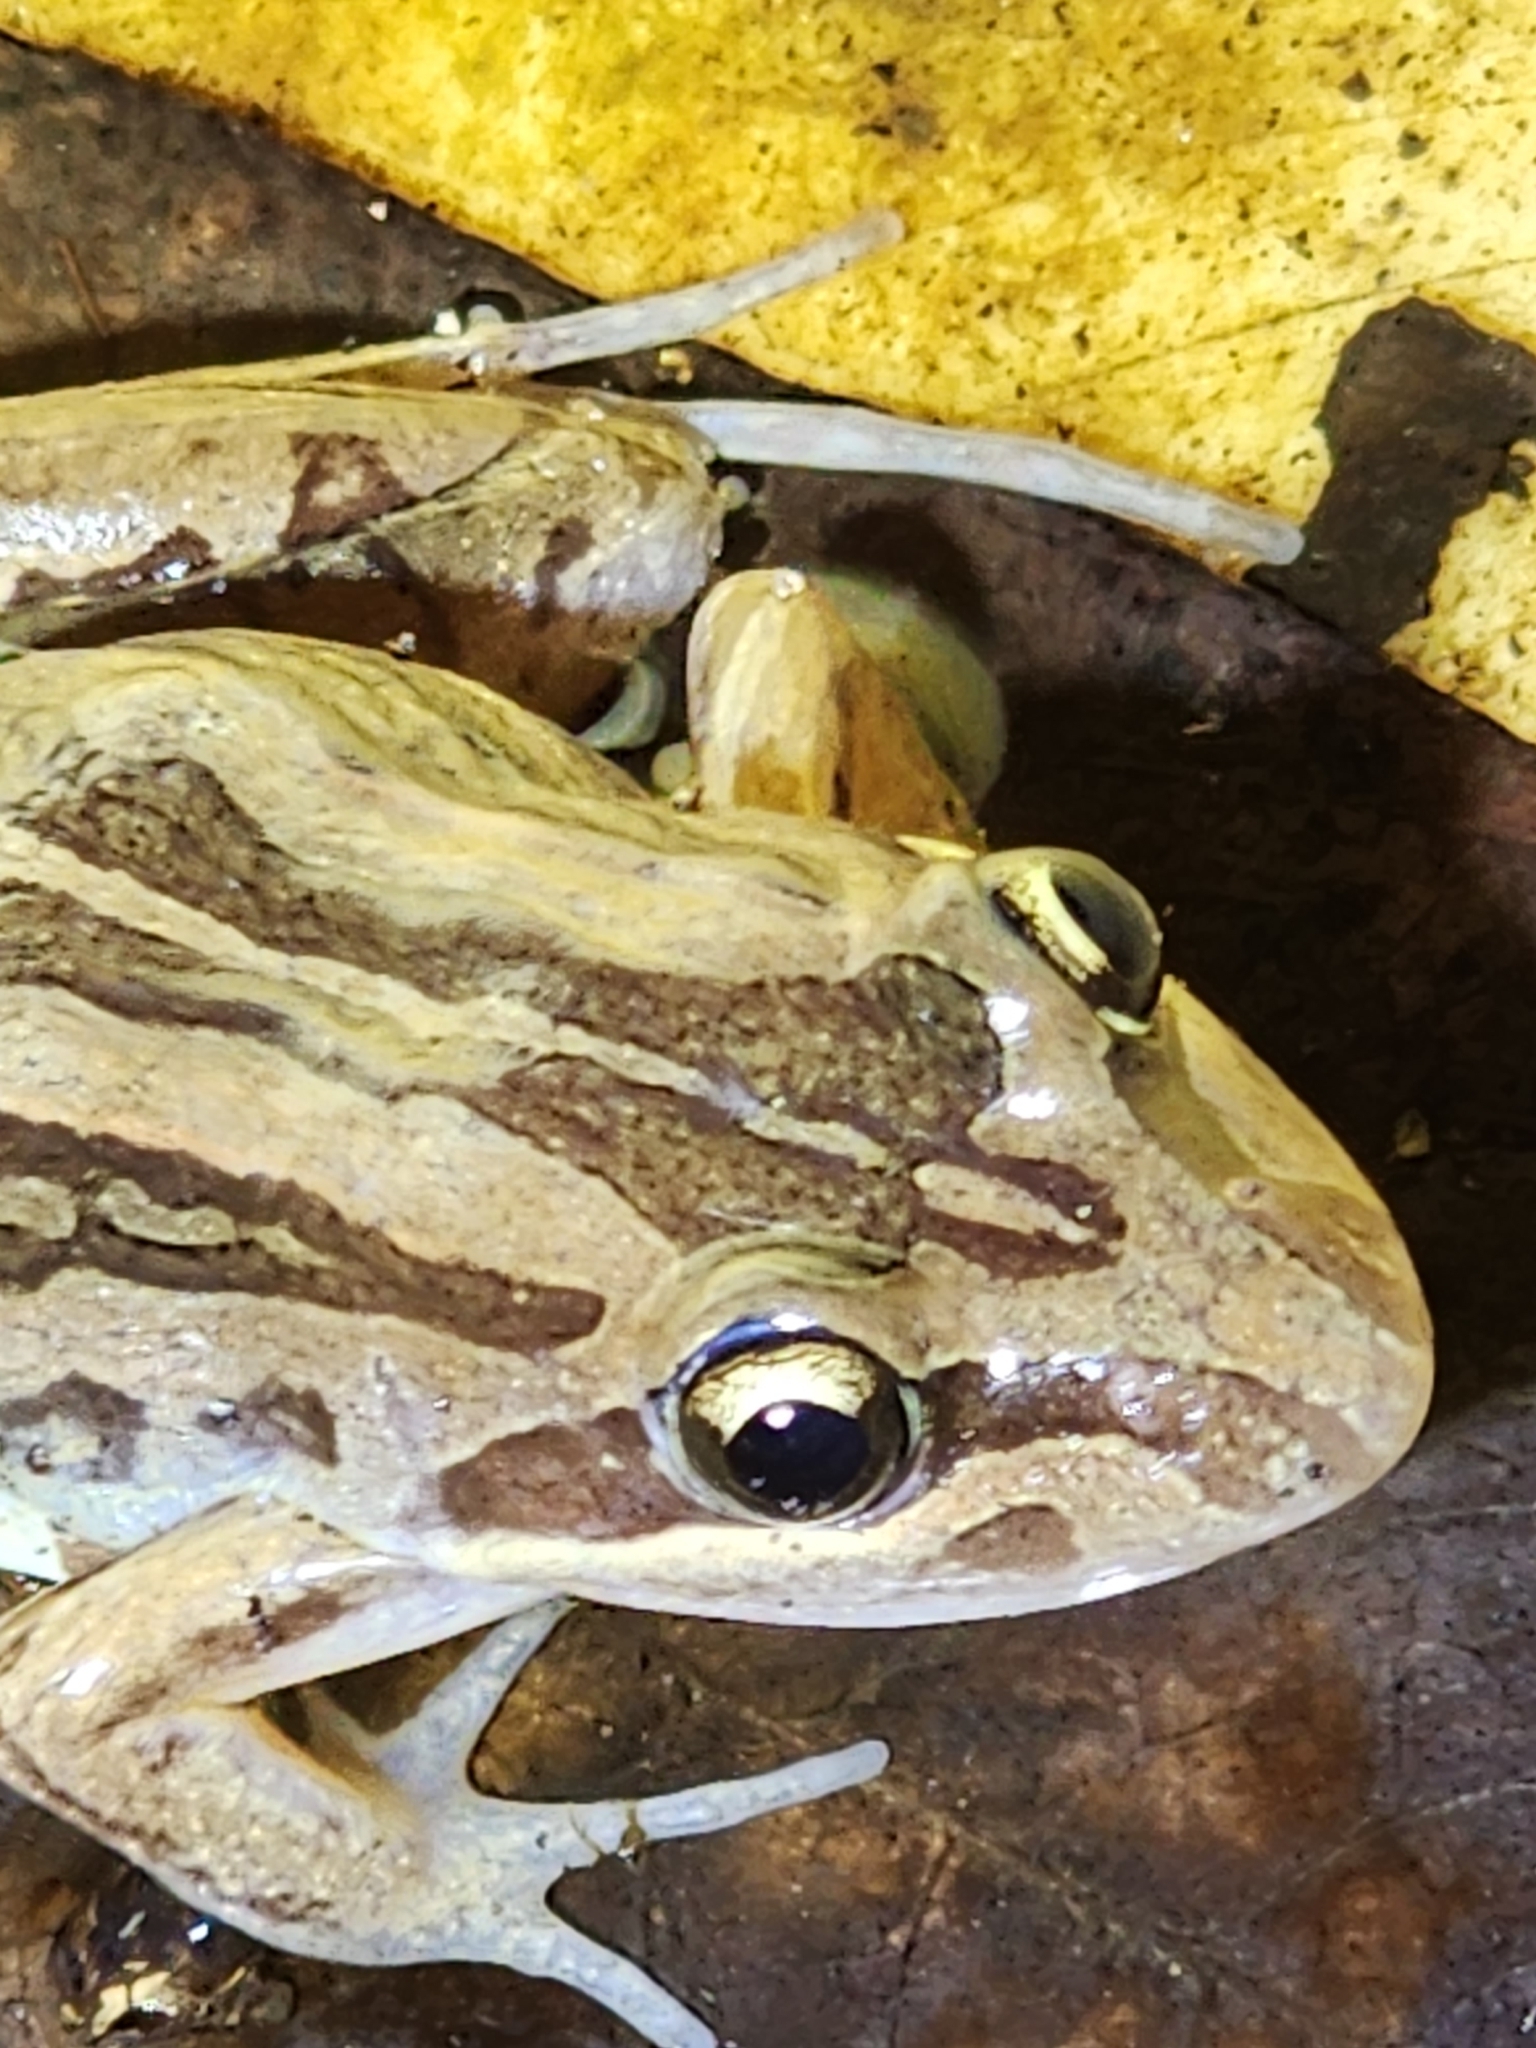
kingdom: Animalia
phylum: Chordata
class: Amphibia
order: Anura
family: Limnodynastidae
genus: Limnodynastes
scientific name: Limnodynastes peronii
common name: Brown frog
